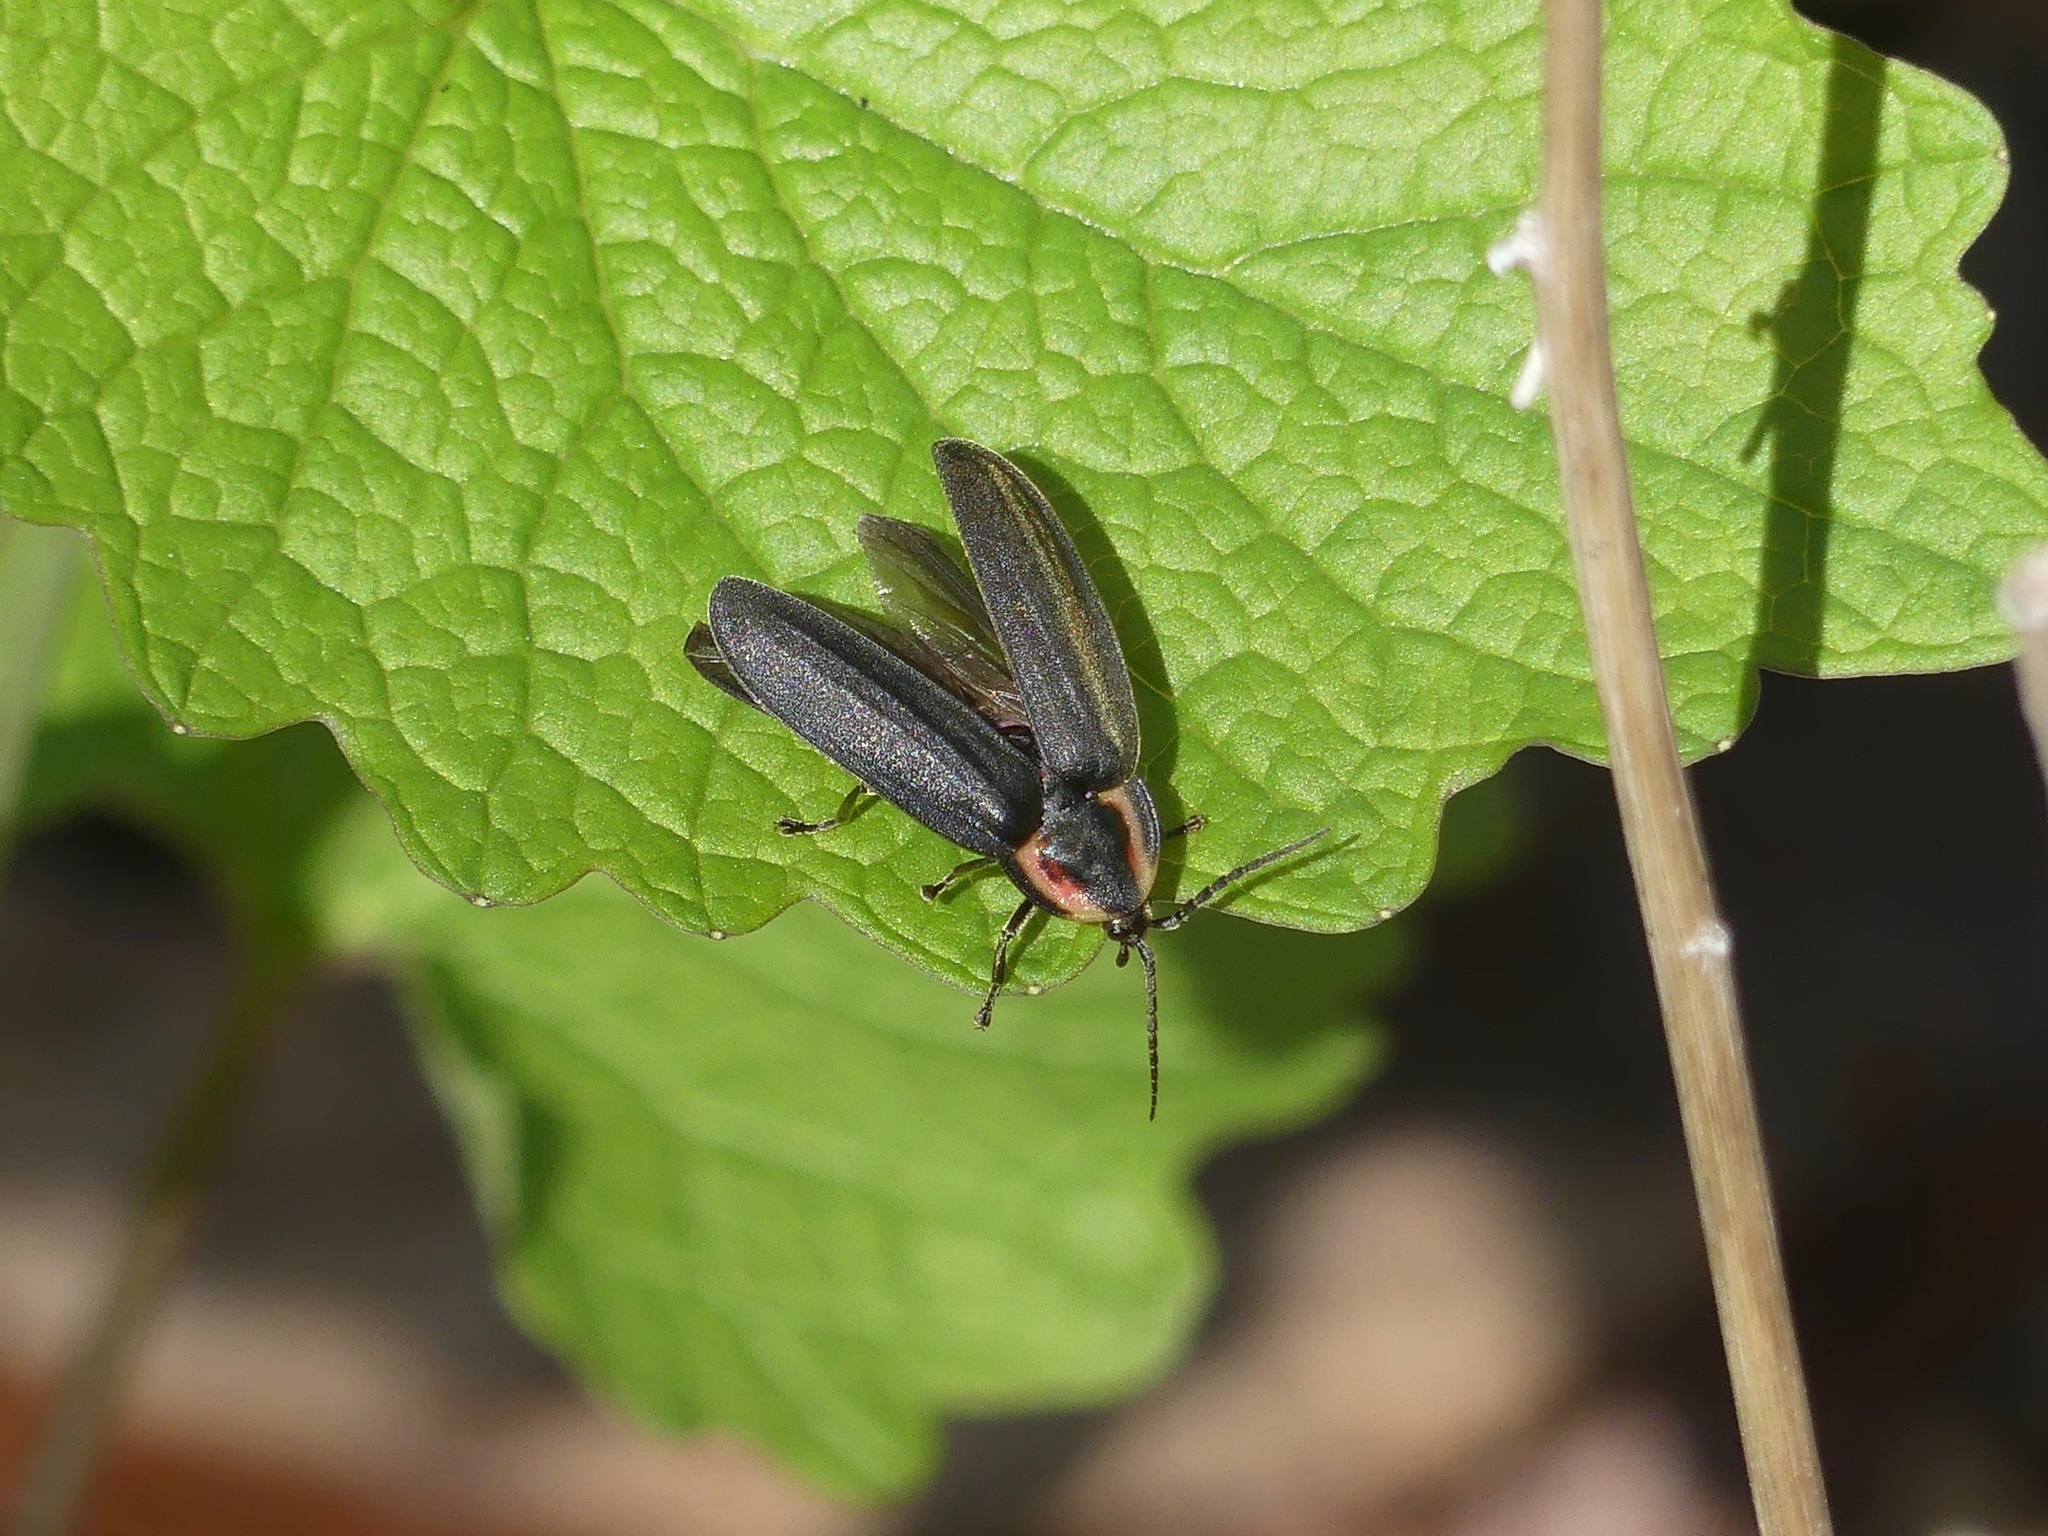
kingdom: Animalia
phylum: Arthropoda
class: Insecta
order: Coleoptera
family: Lampyridae
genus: Photinus
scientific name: Photinus corrusca
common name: Winter firefly
